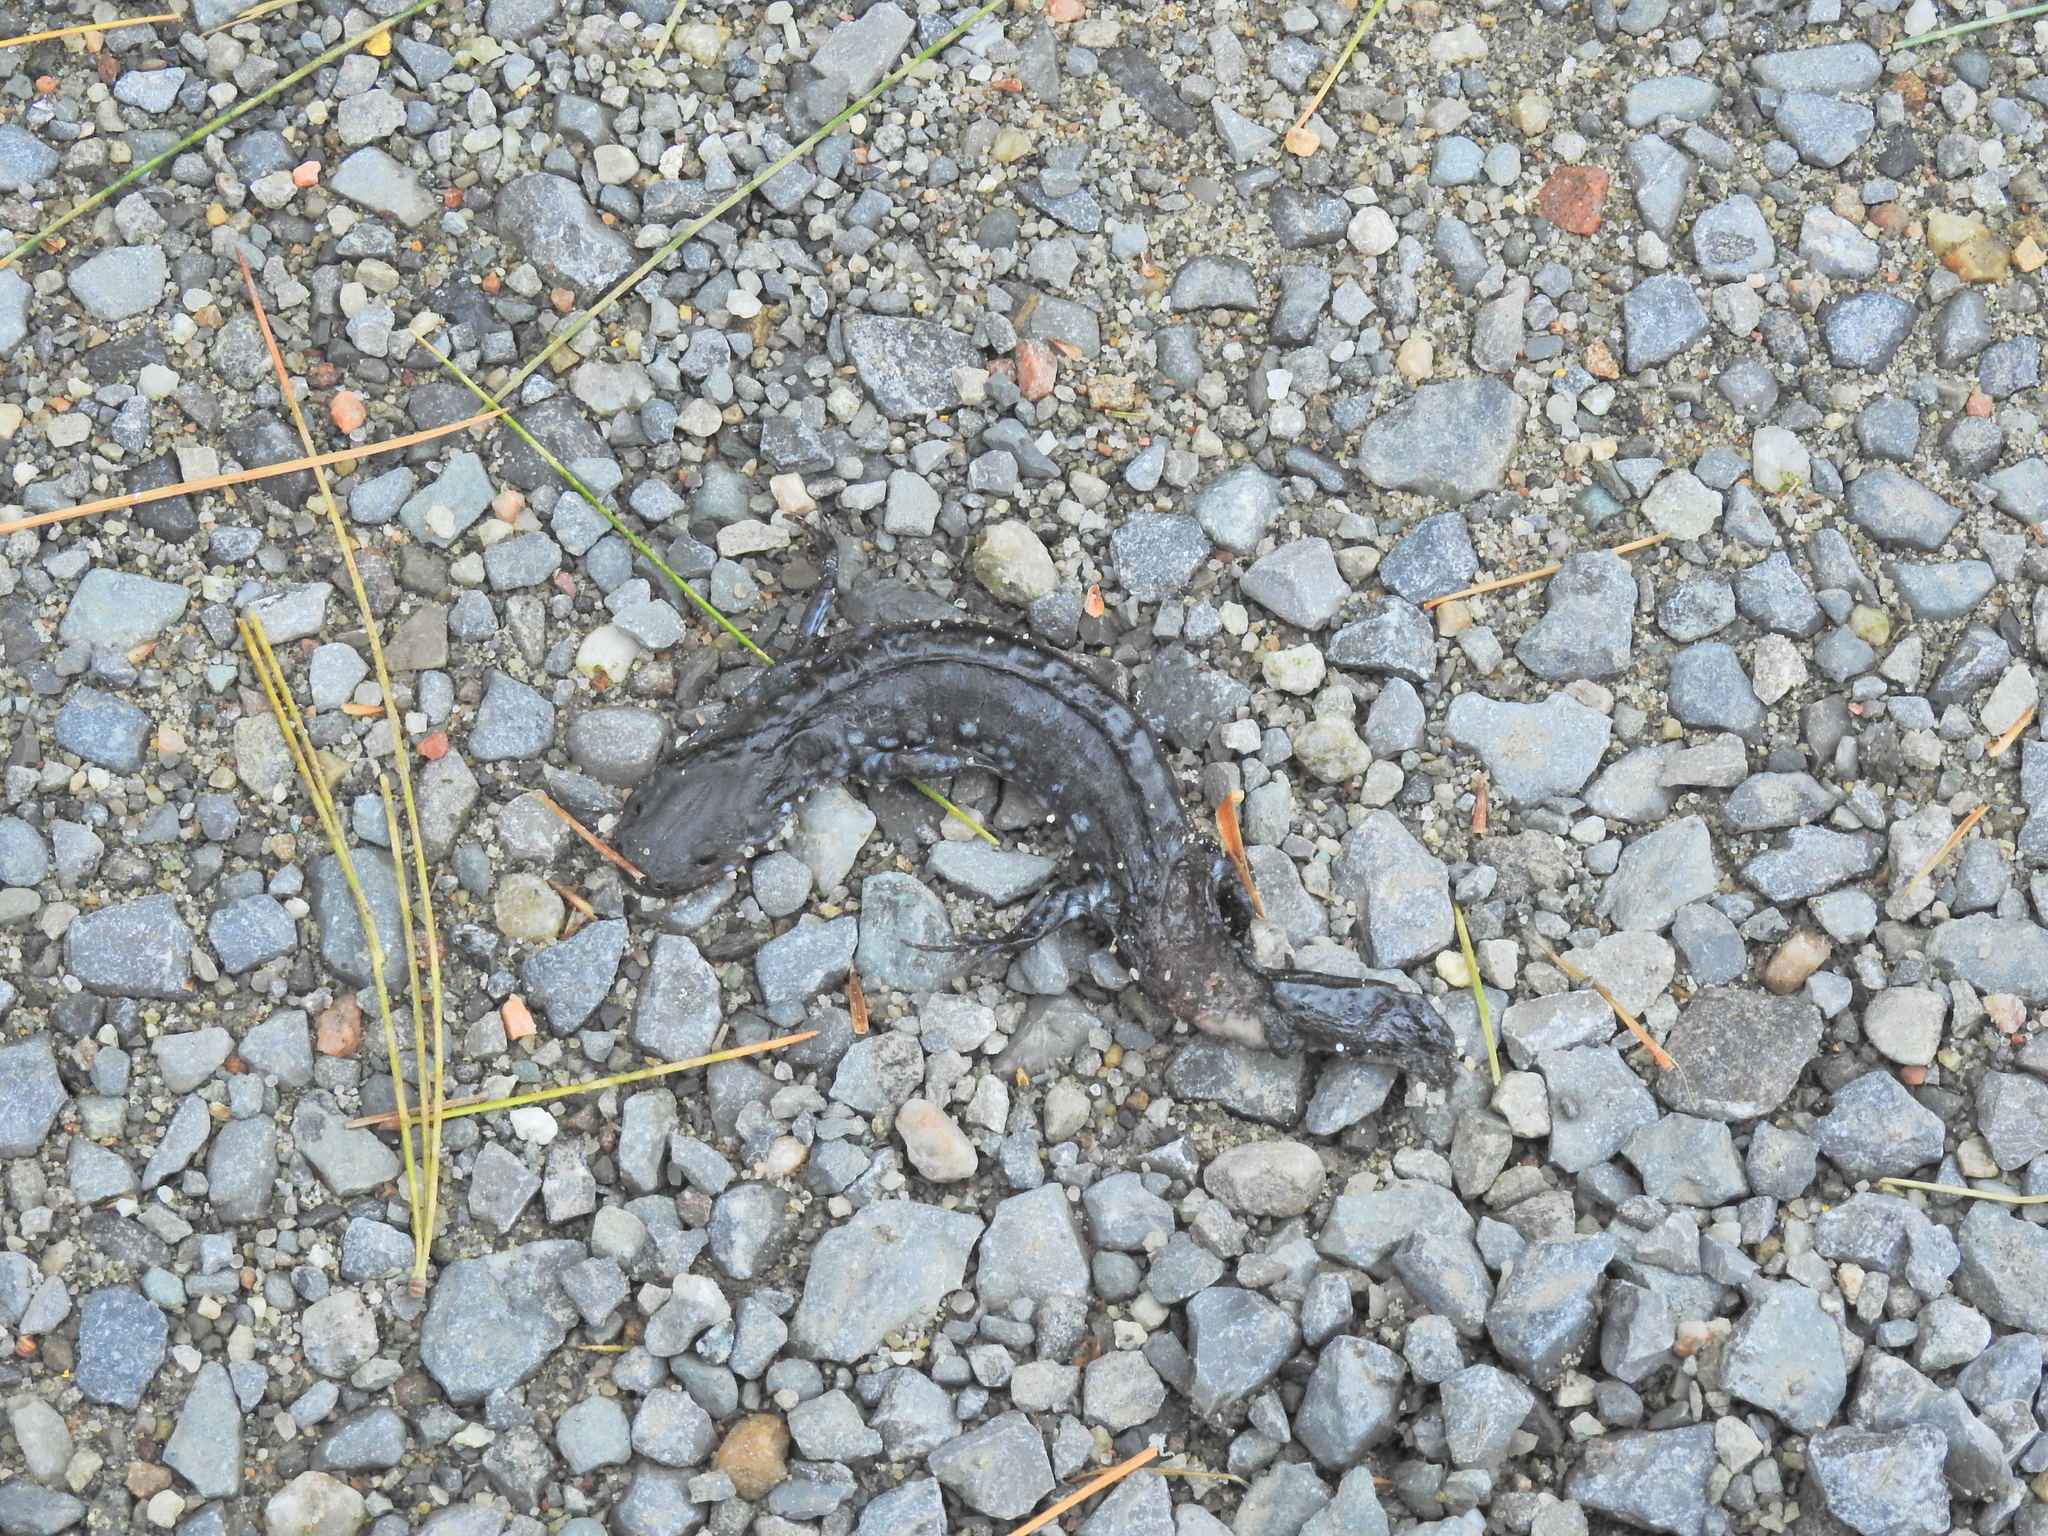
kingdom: Animalia
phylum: Chordata
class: Amphibia
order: Caudata
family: Ambystomatidae
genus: Ambystoma
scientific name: Ambystoma laterale
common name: Blue-spotted salamander
